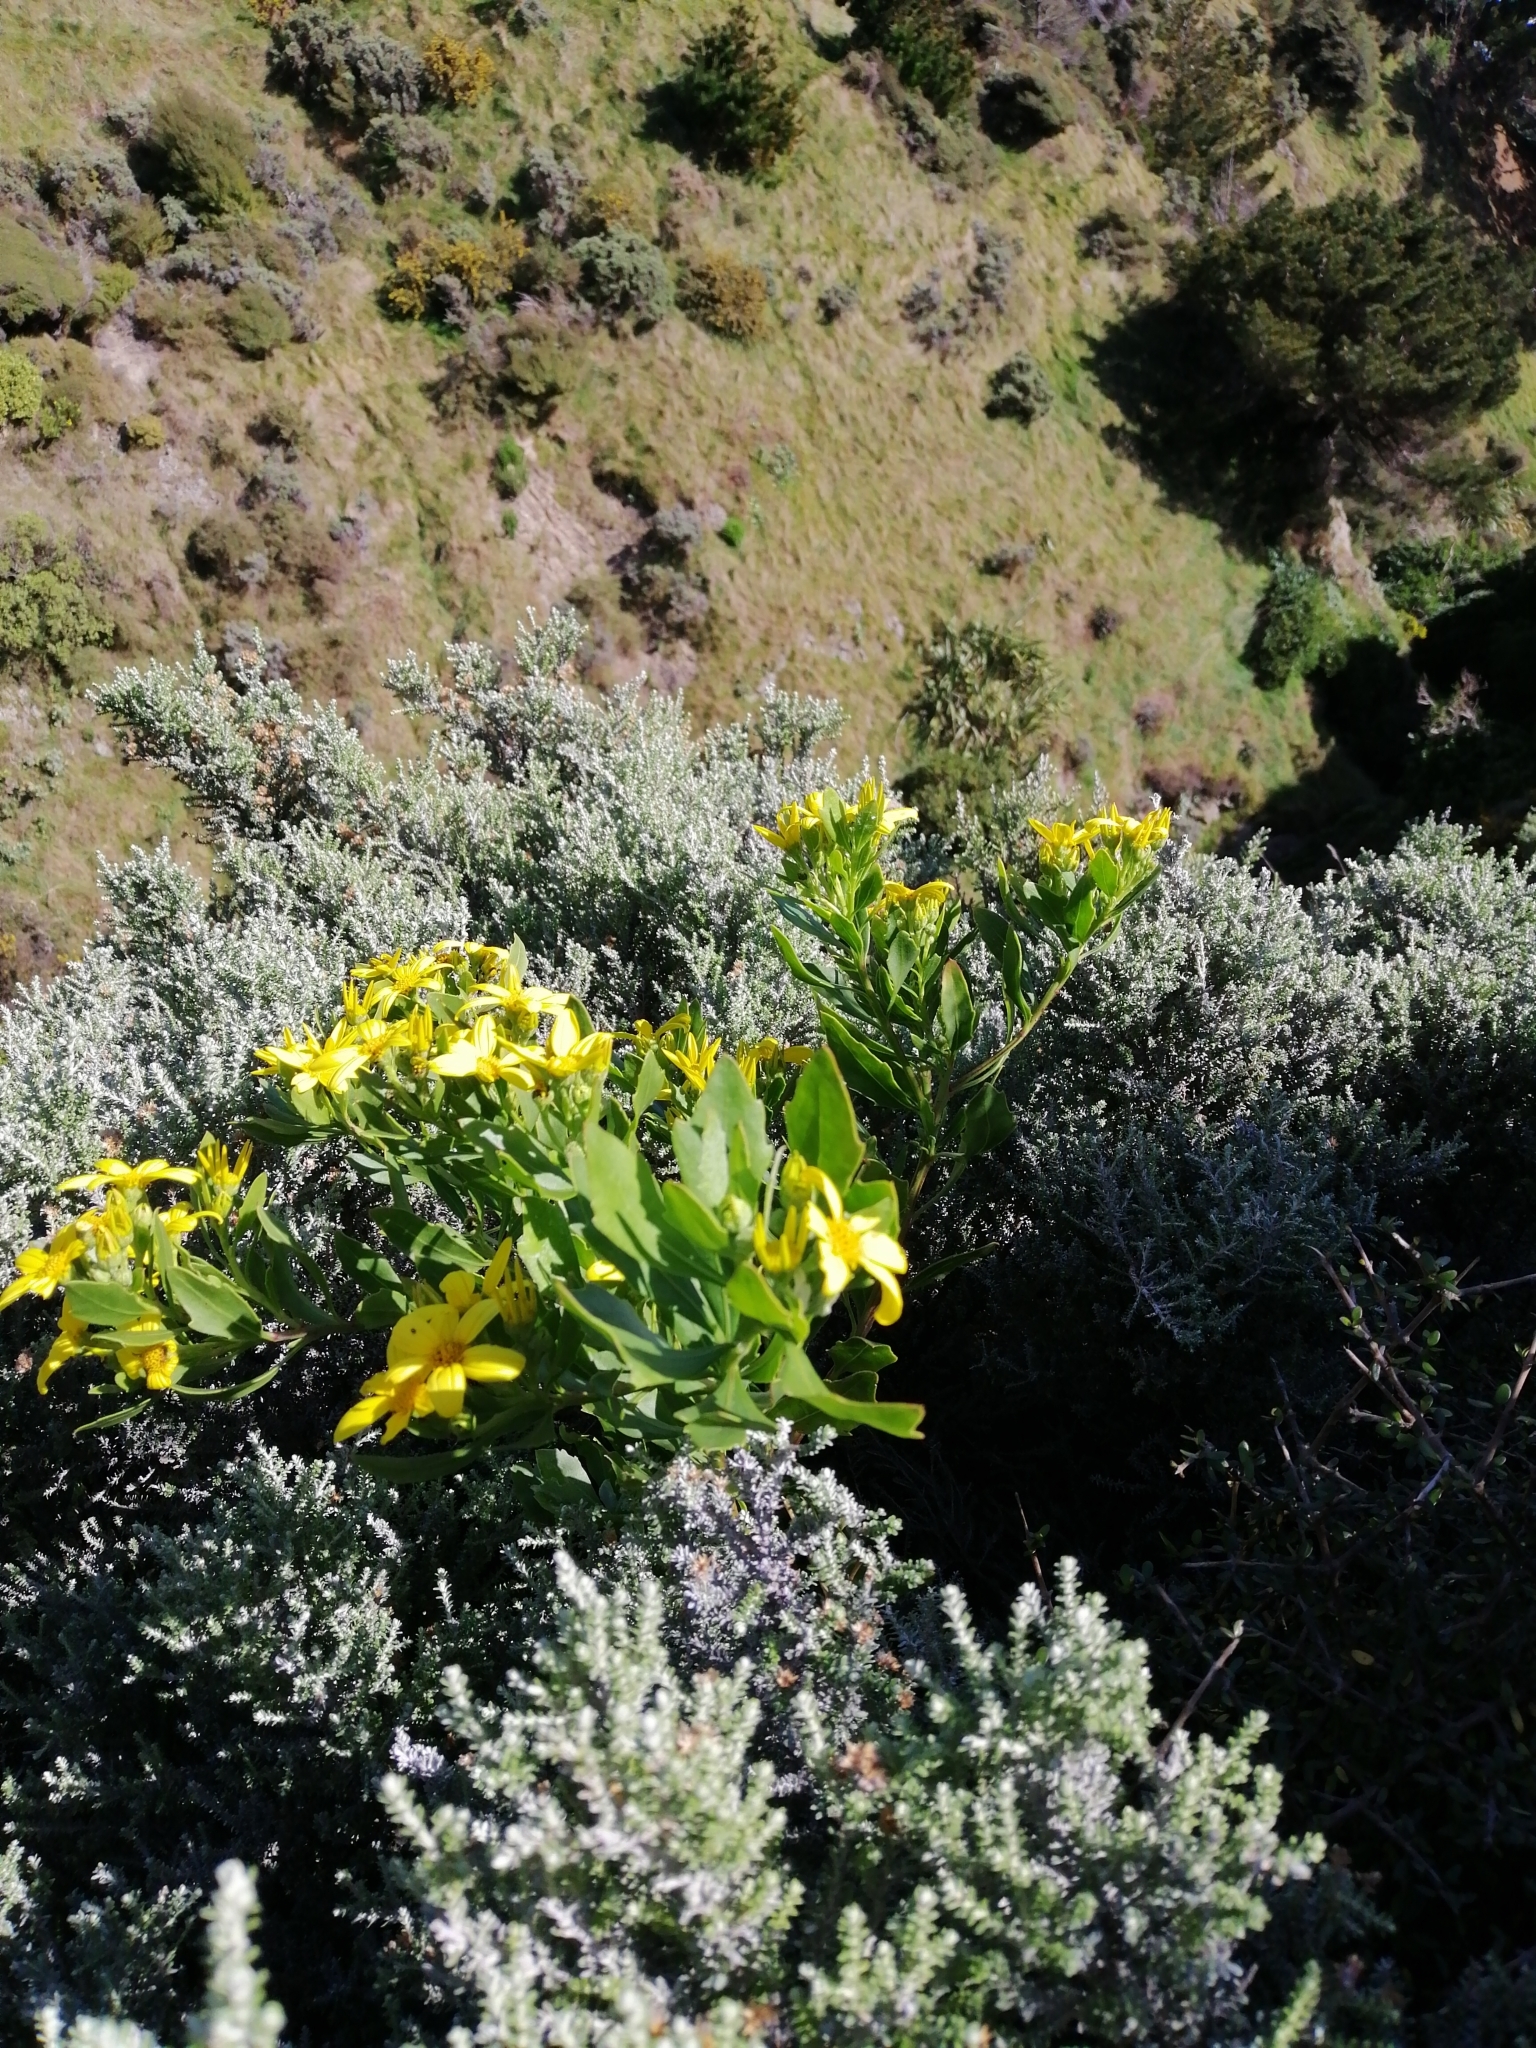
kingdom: Plantae
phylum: Tracheophyta
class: Magnoliopsida
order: Asterales
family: Asteraceae
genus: Osteospermum
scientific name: Osteospermum moniliferum
